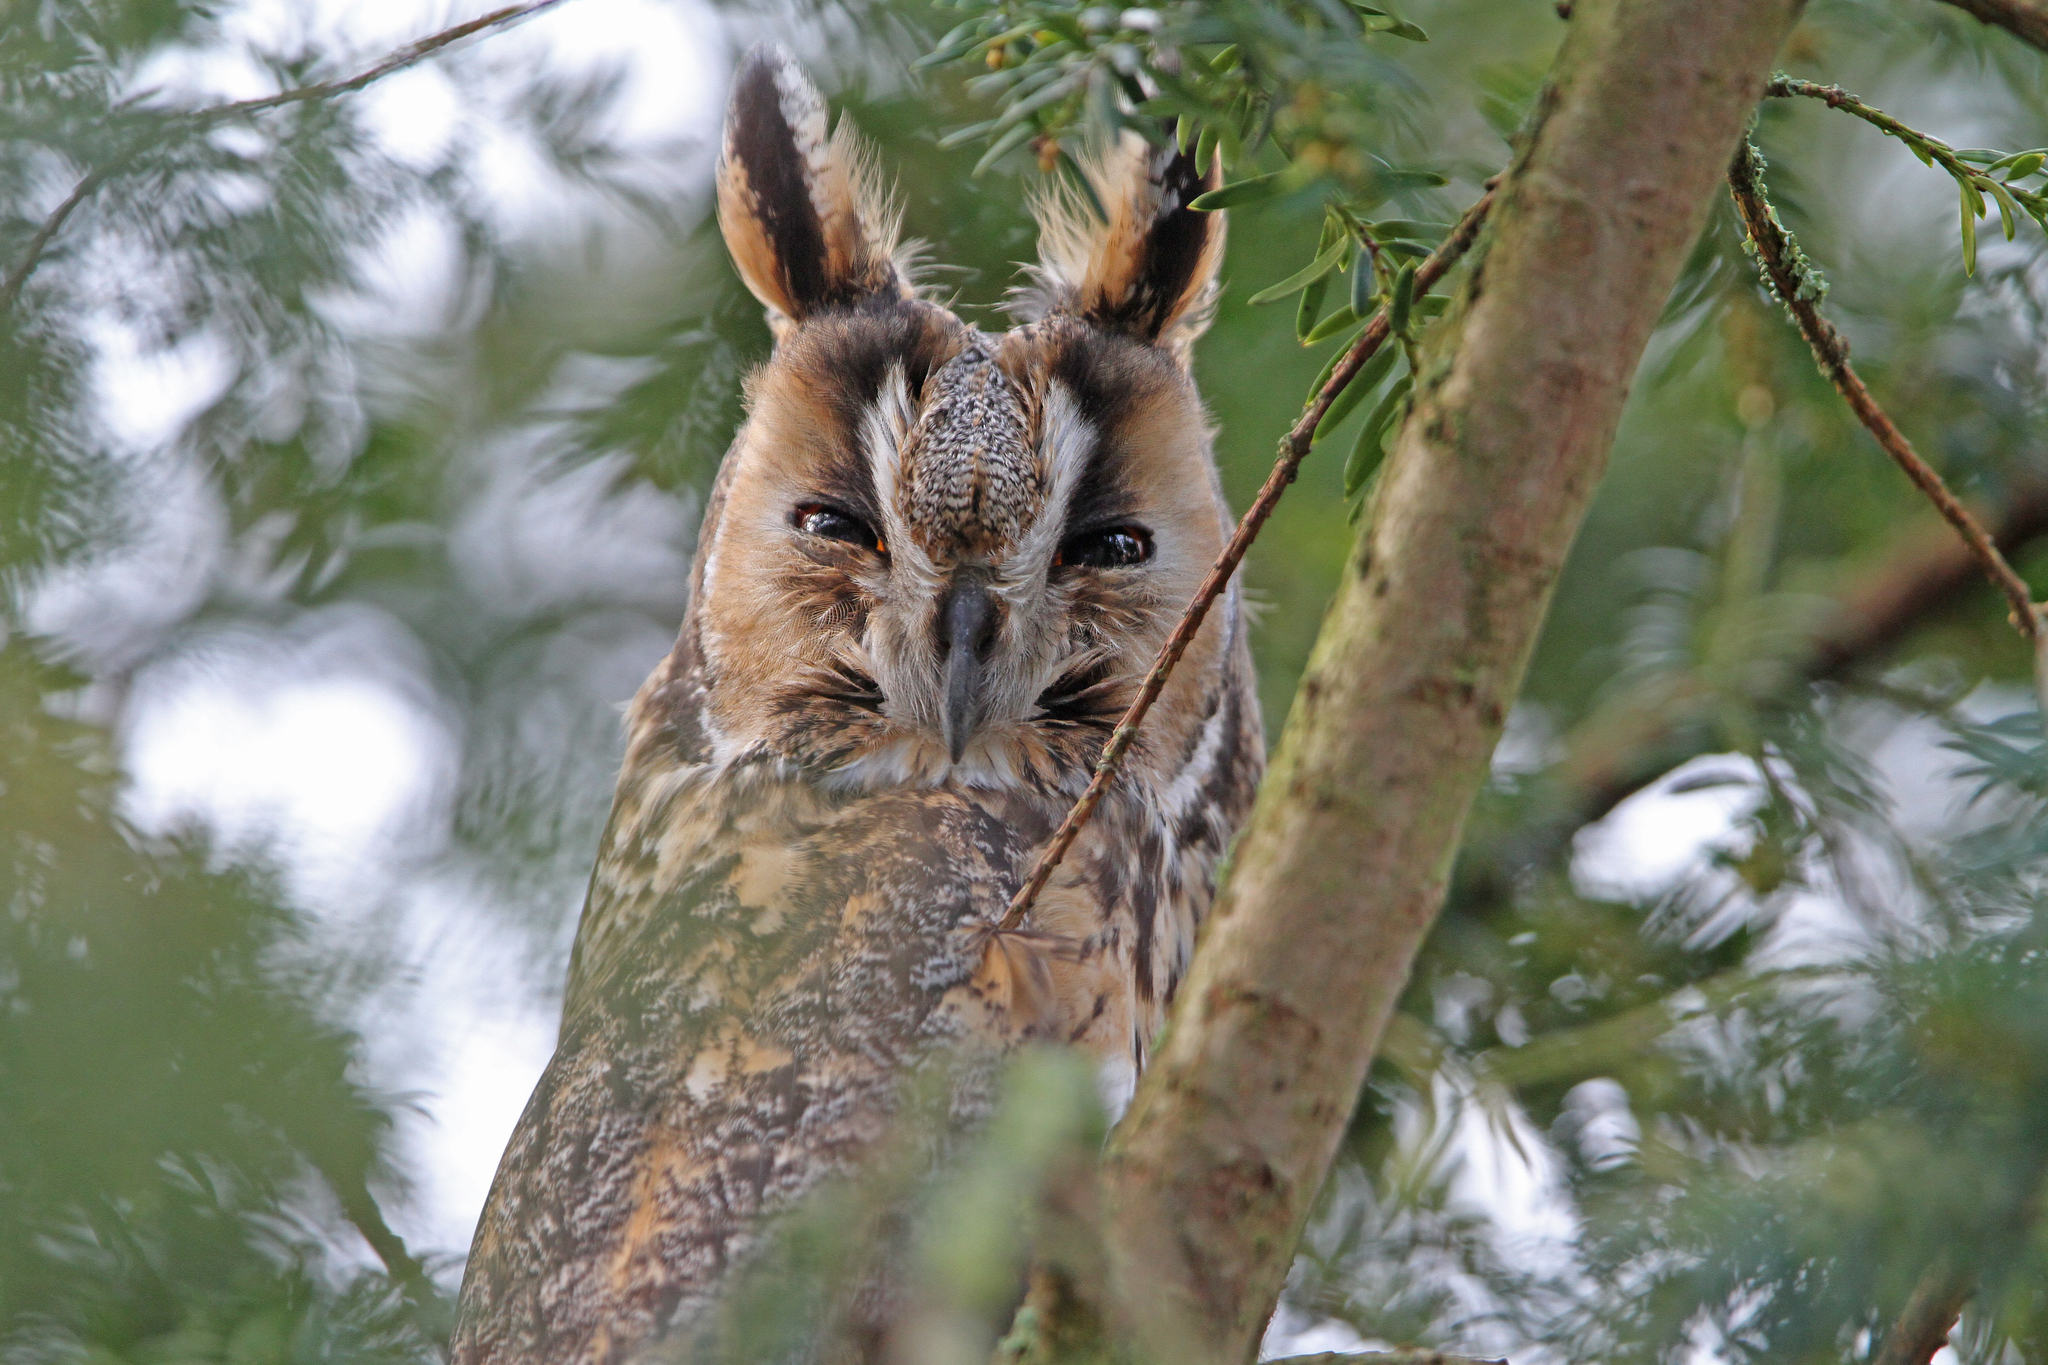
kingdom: Animalia
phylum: Chordata
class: Aves
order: Strigiformes
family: Strigidae
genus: Asio
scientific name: Asio otus
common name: Long-eared owl
